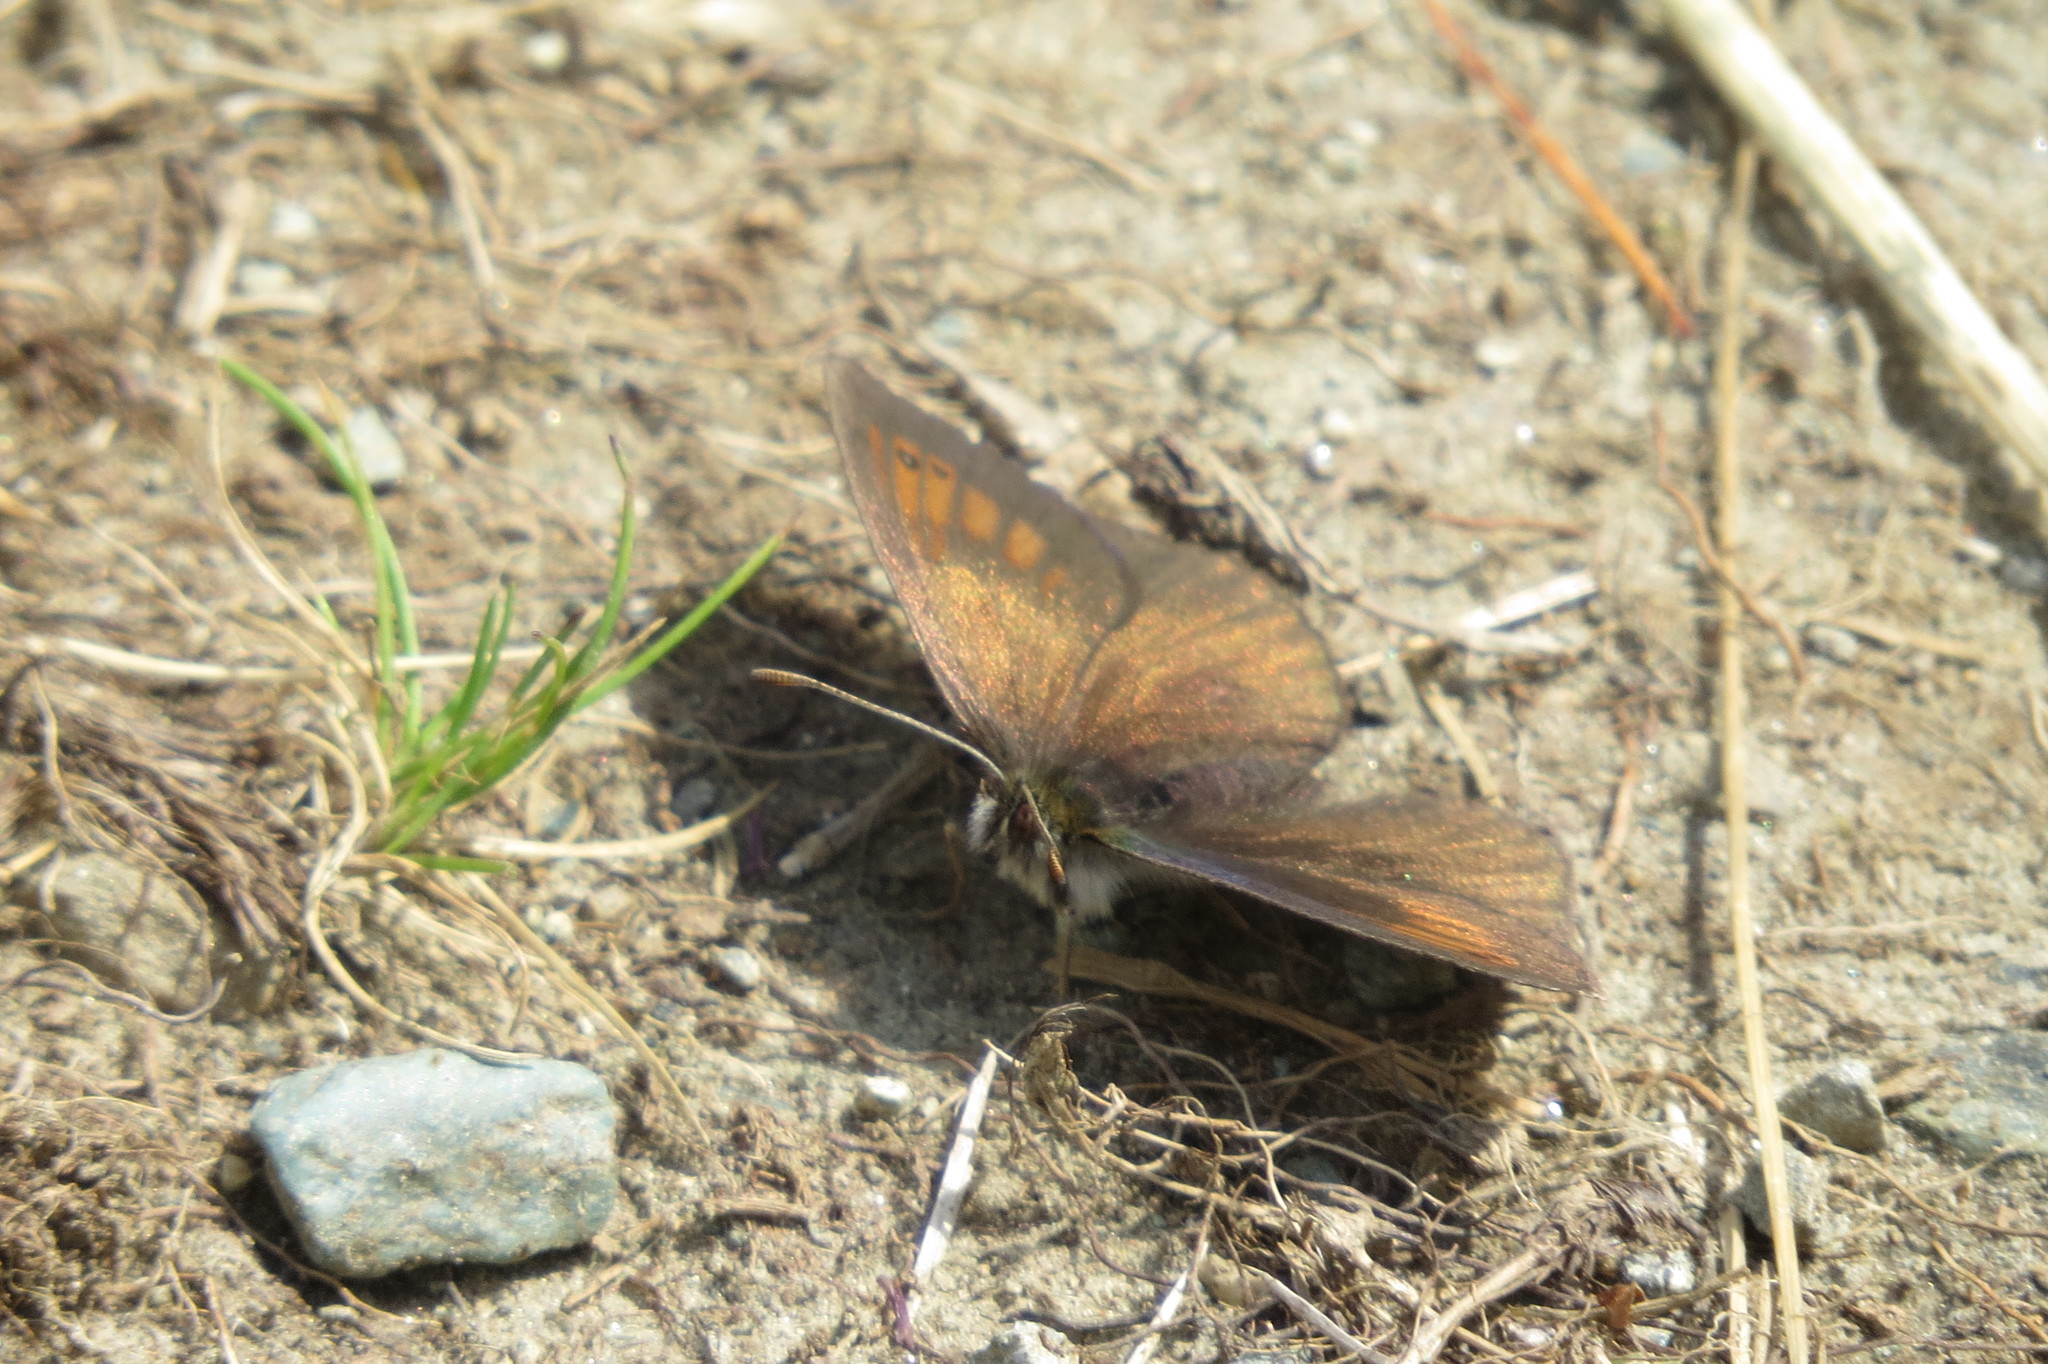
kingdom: Animalia
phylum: Arthropoda
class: Insecta
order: Lepidoptera
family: Nymphalidae
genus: Erebia
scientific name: Erebia tyndarus
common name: Swiss brassy ringlet
